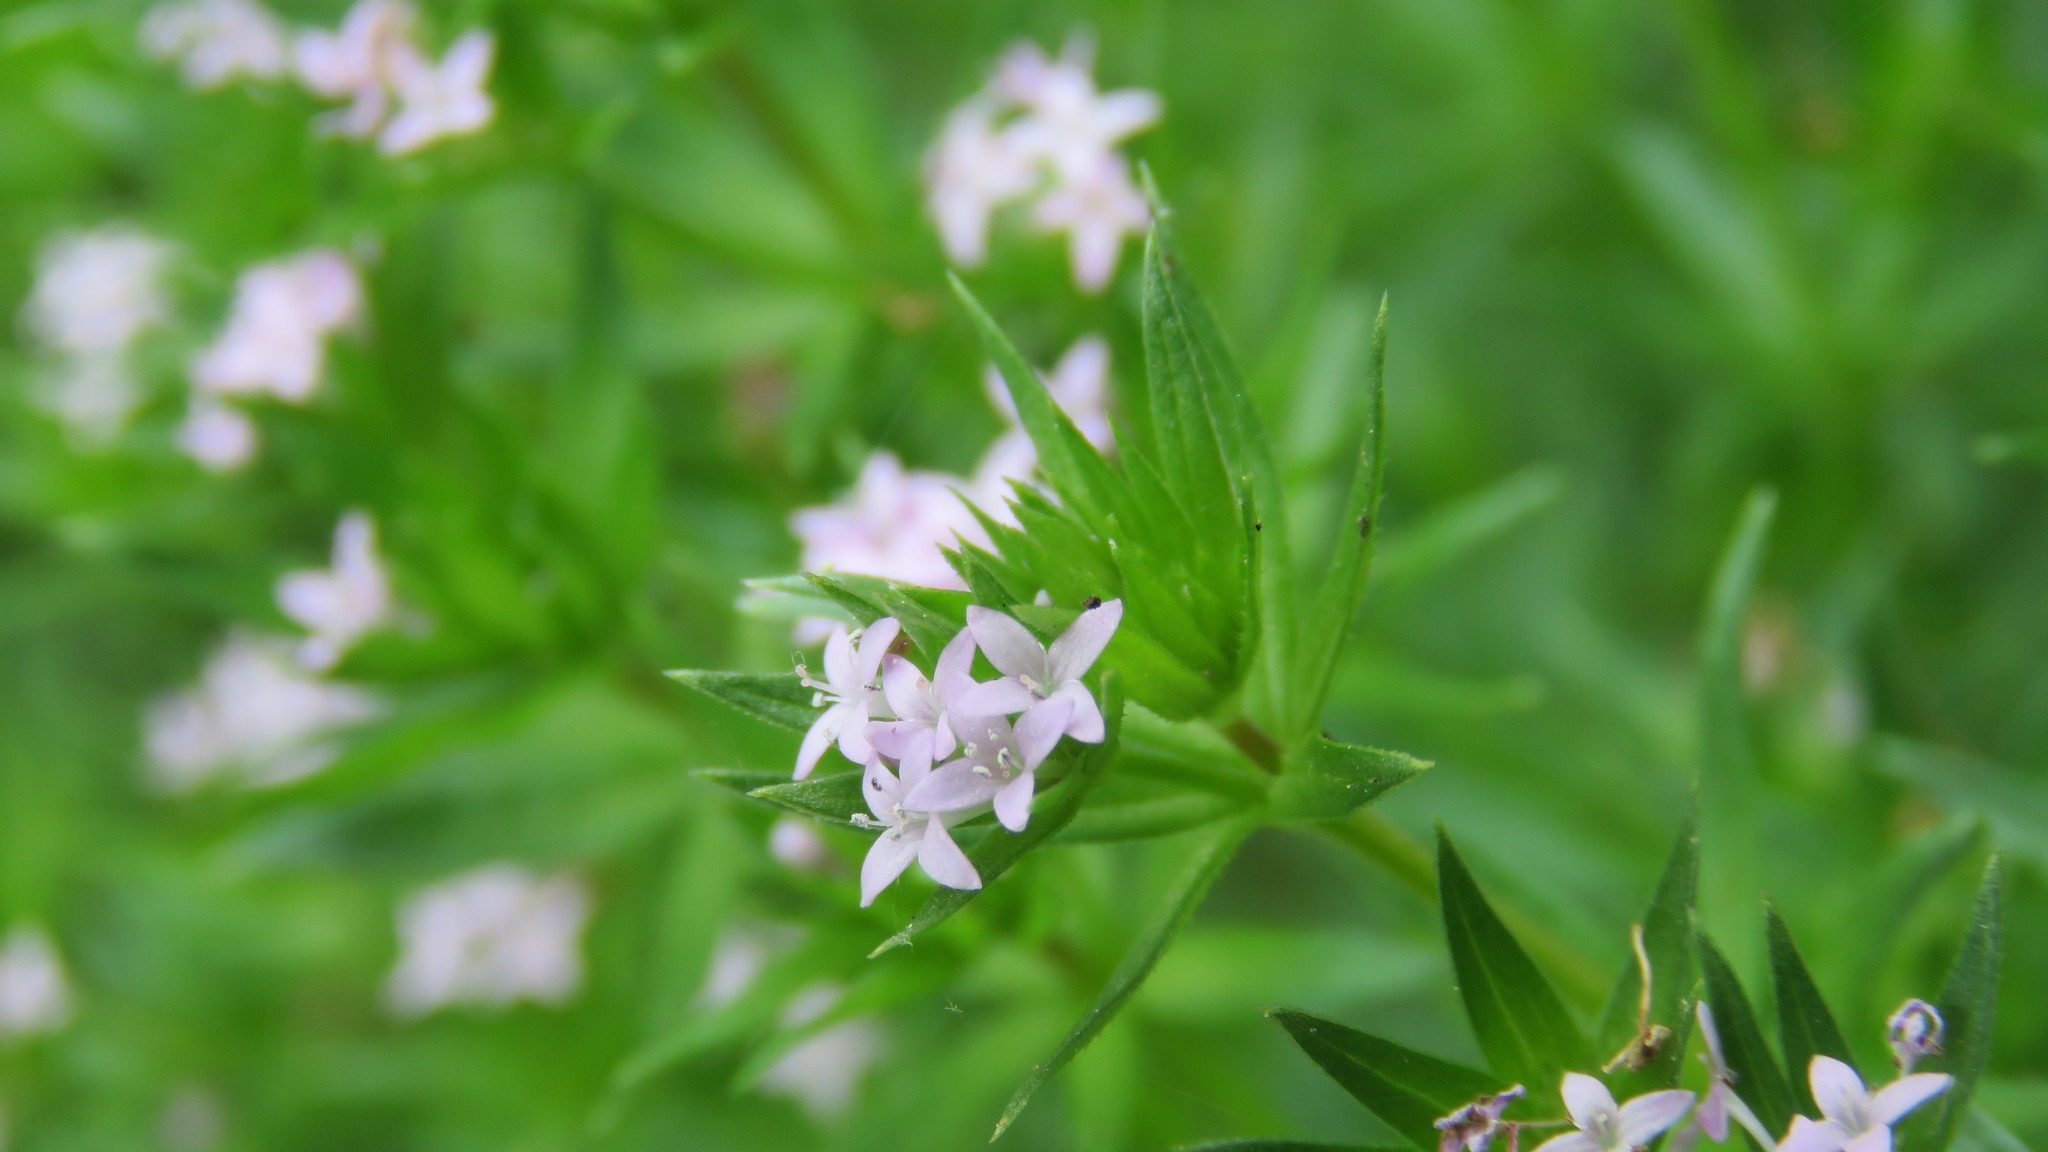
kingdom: Plantae
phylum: Tracheophyta
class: Magnoliopsida
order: Gentianales
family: Rubiaceae
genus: Sherardia
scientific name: Sherardia arvensis
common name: Field madder
